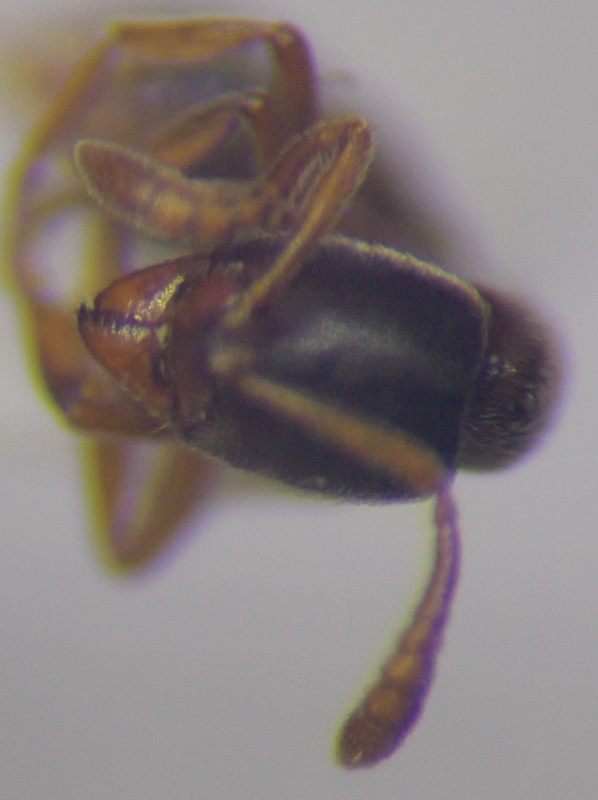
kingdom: Animalia
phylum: Arthropoda
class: Insecta
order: Hymenoptera
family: Formicidae
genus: Ponera
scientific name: Ponera coarctata
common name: Indolent ant
